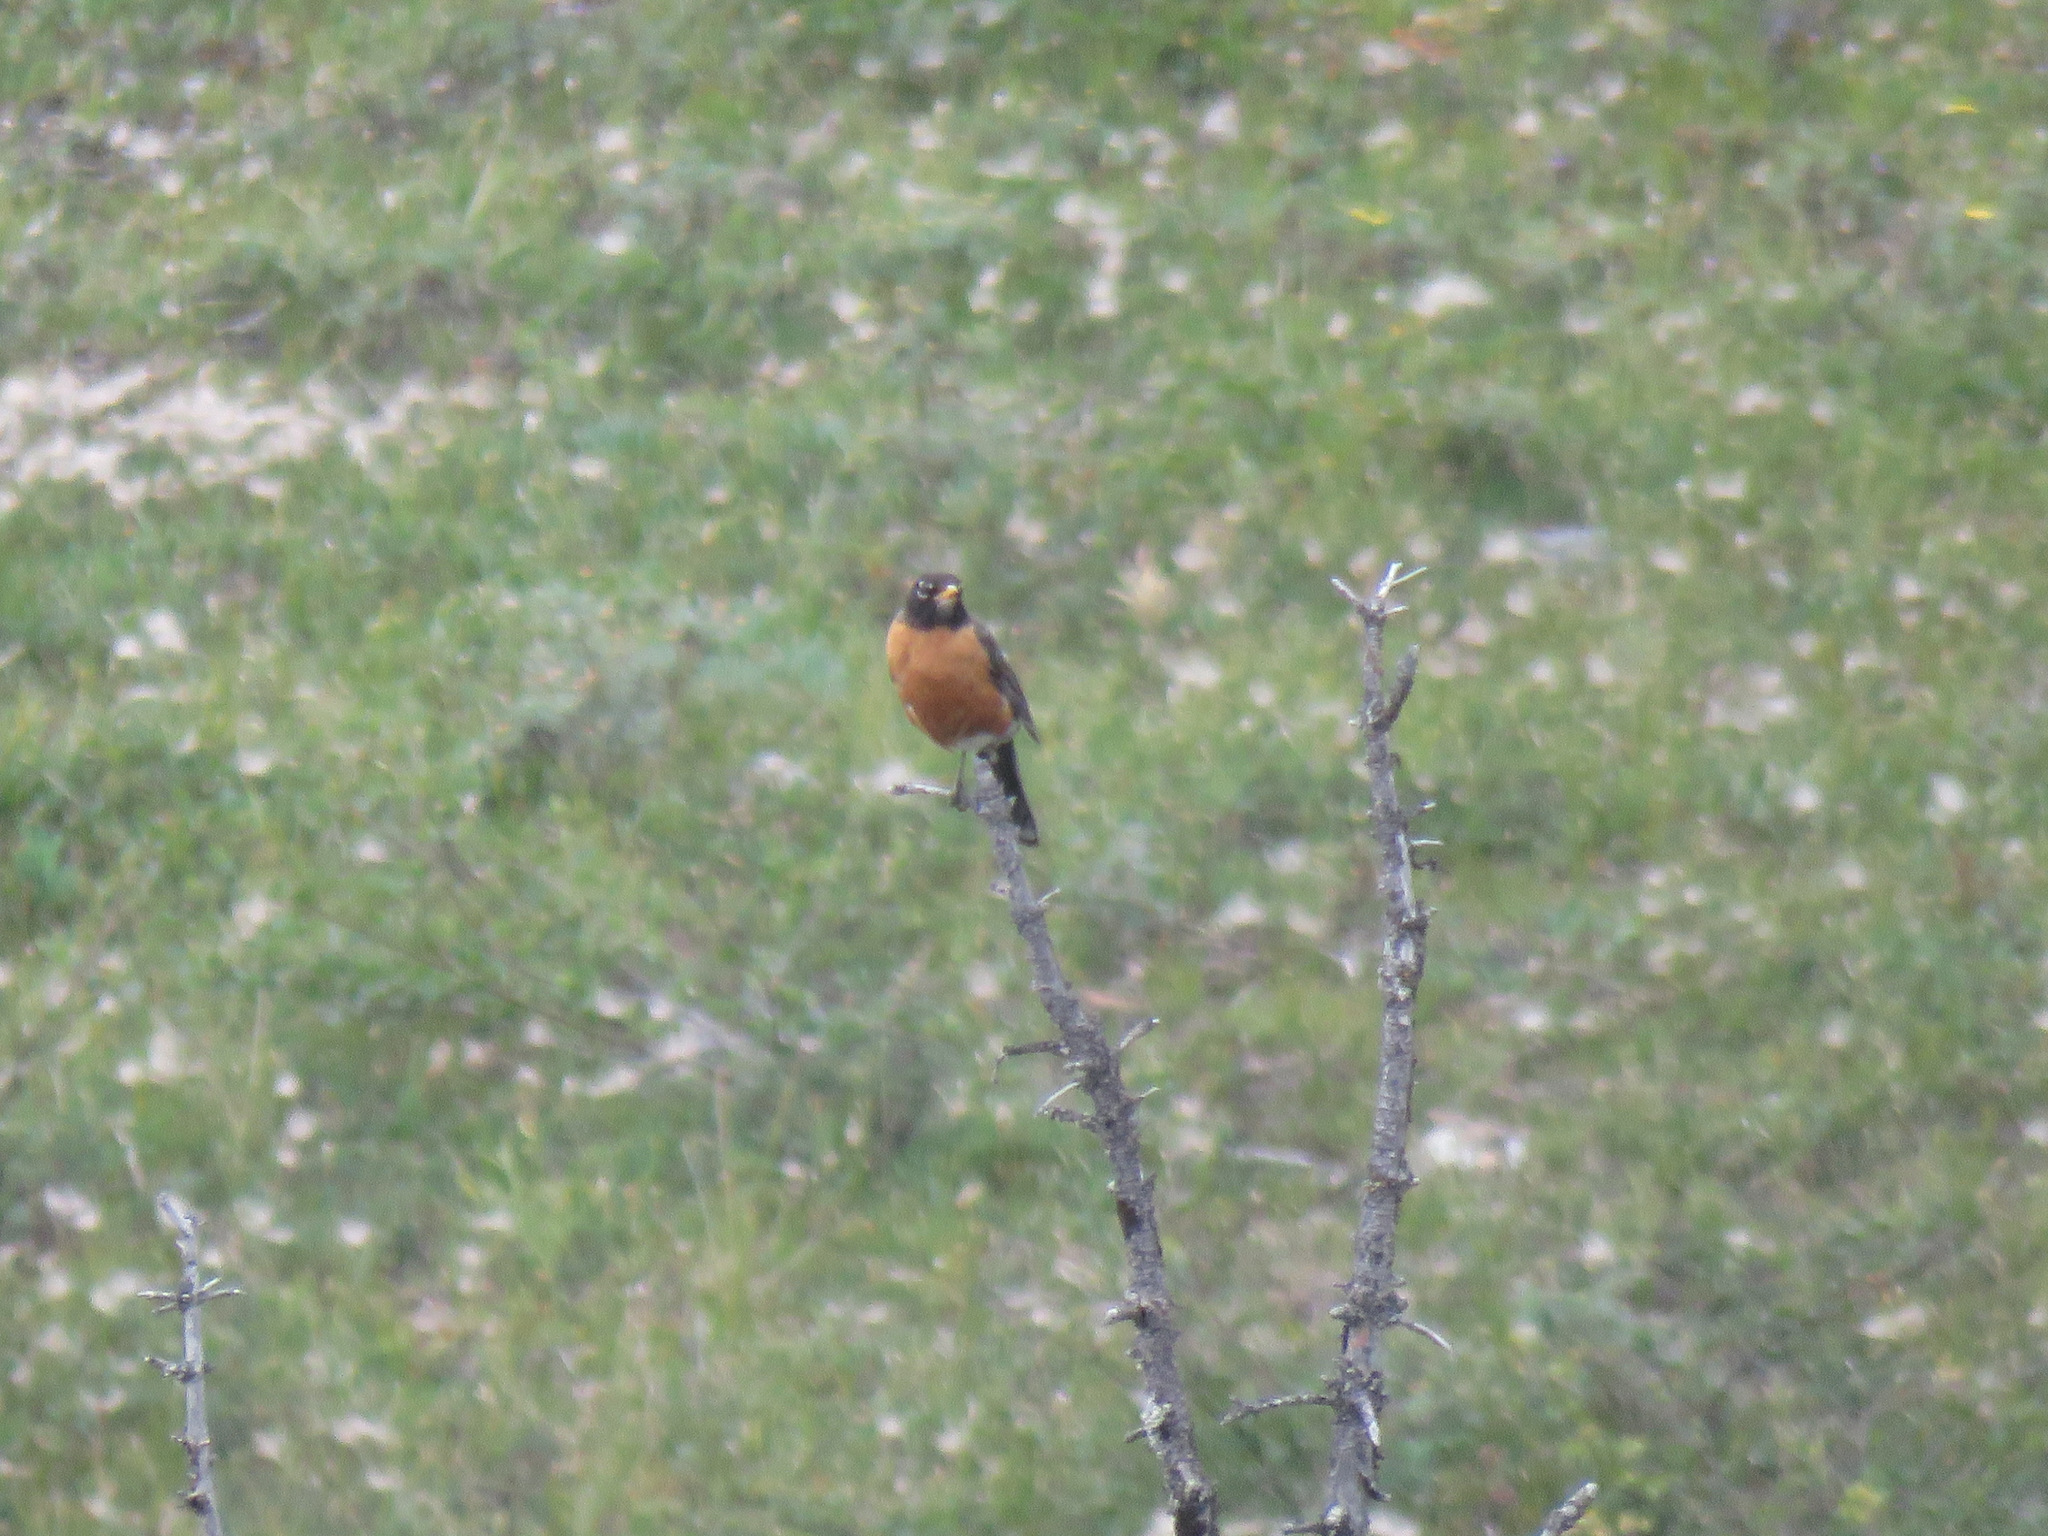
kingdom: Animalia
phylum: Chordata
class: Aves
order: Passeriformes
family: Turdidae
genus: Turdus
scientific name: Turdus migratorius
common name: American robin
